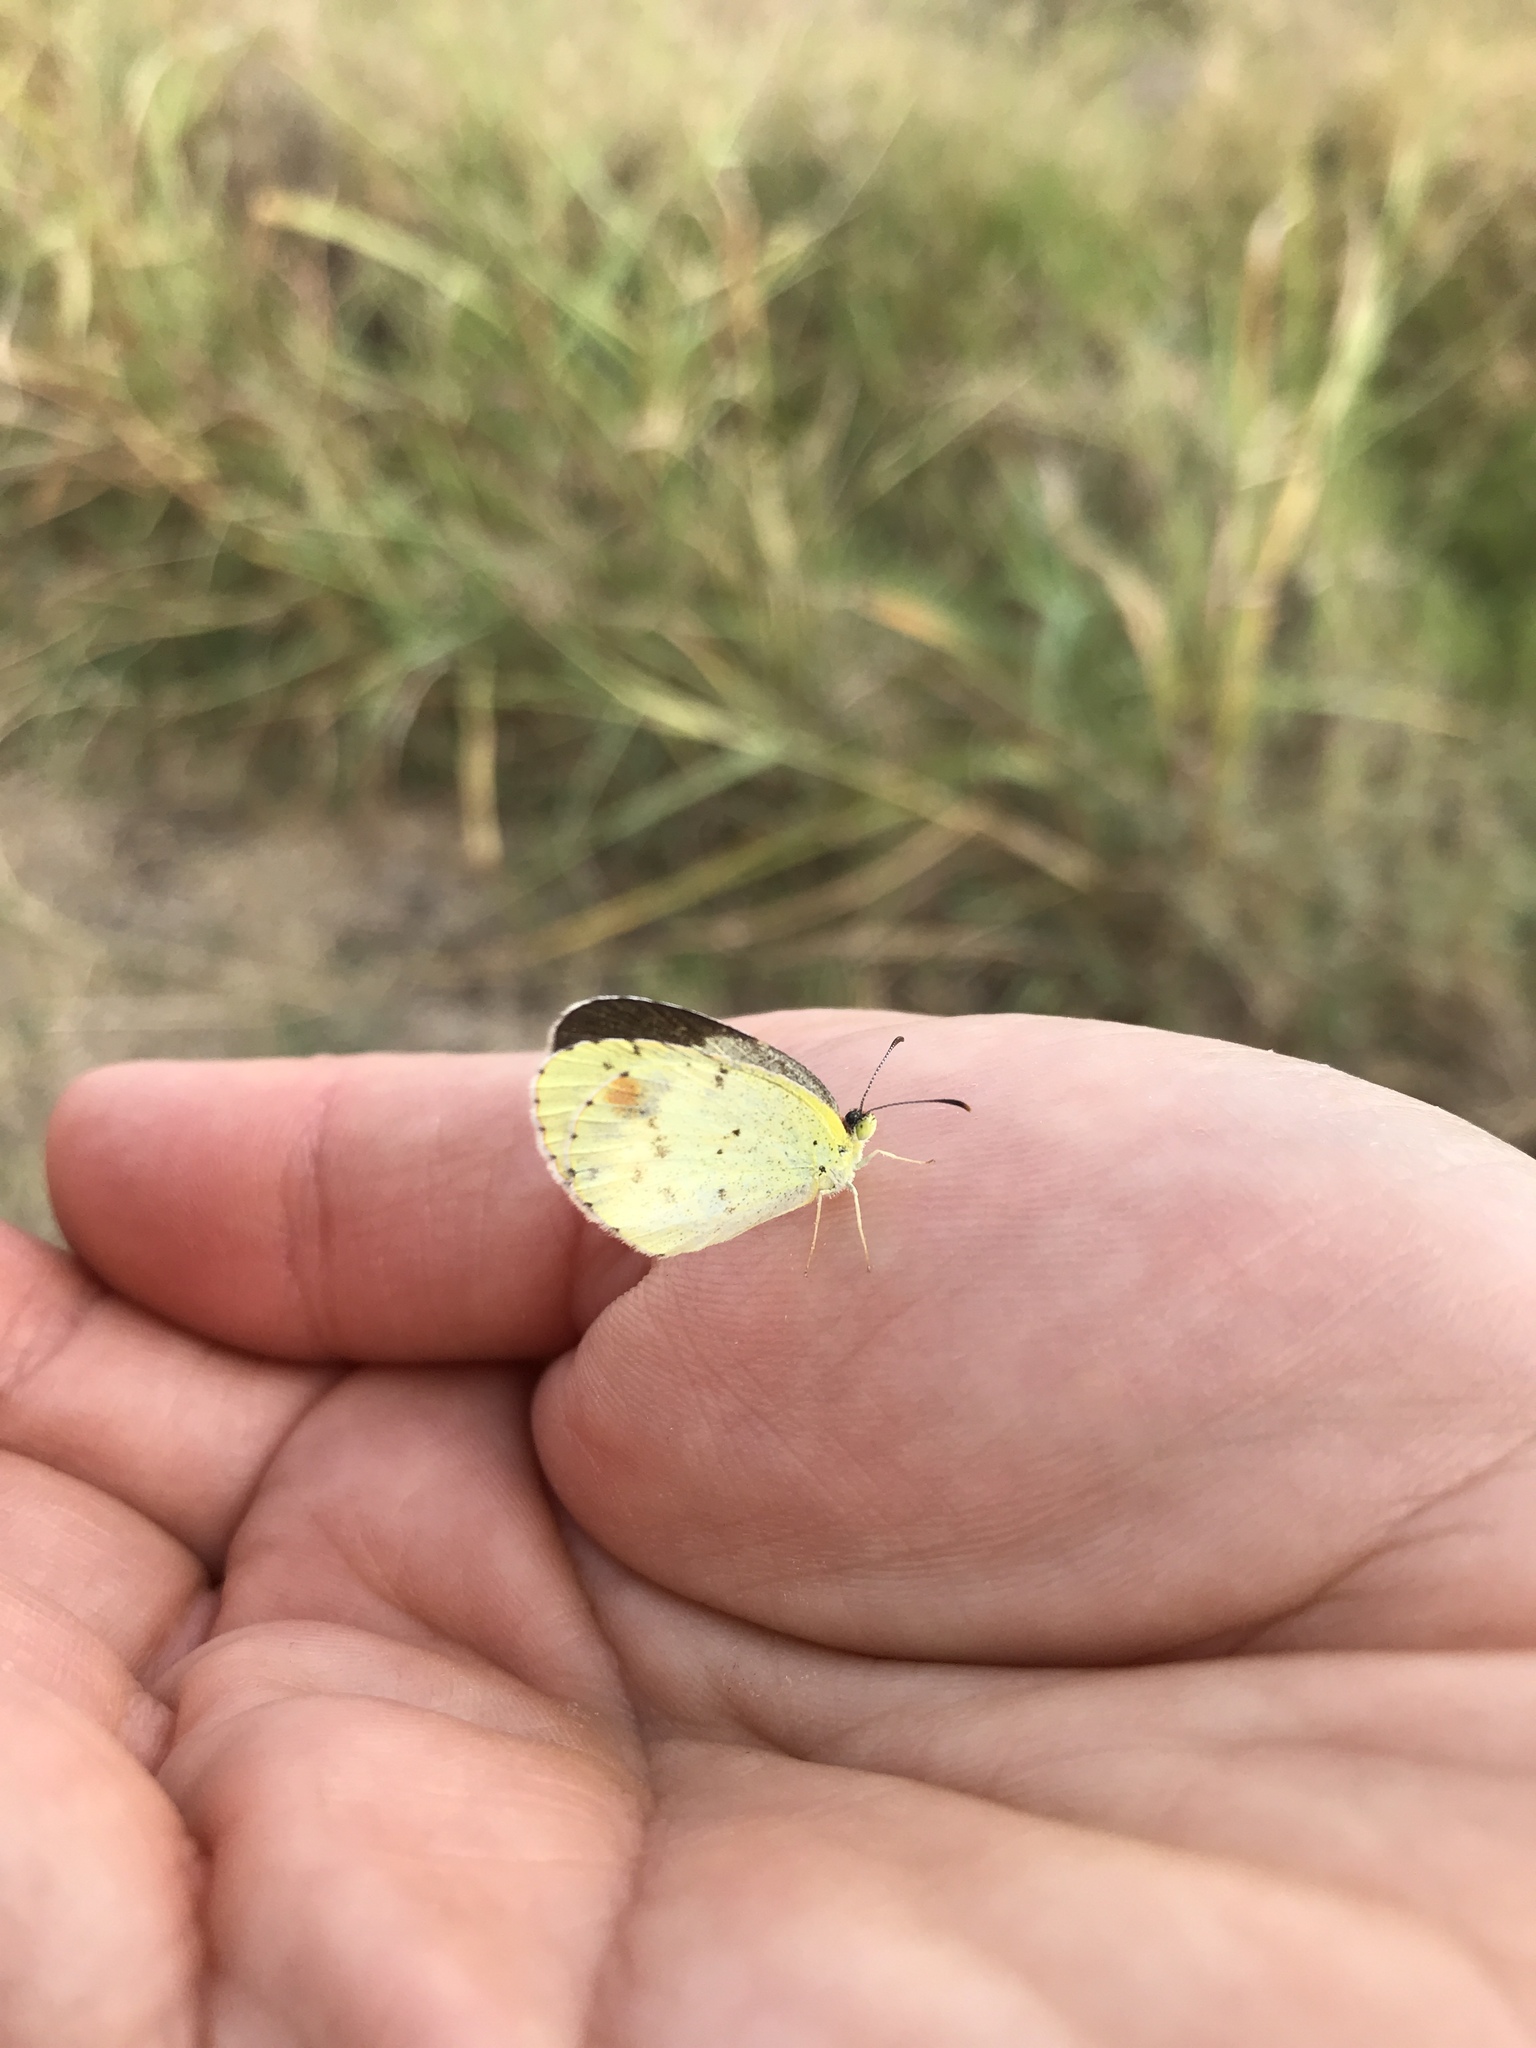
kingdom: Animalia
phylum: Arthropoda
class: Insecta
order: Lepidoptera
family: Pieridae
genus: Pyrisitia
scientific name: Pyrisitia lisa
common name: Little yellow
